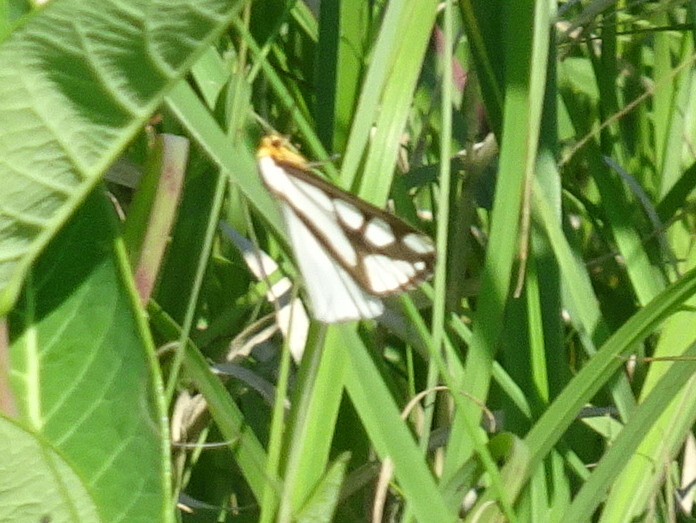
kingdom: Animalia
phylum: Arthropoda
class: Insecta
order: Lepidoptera
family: Erebidae
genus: Haploa
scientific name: Haploa reversa
